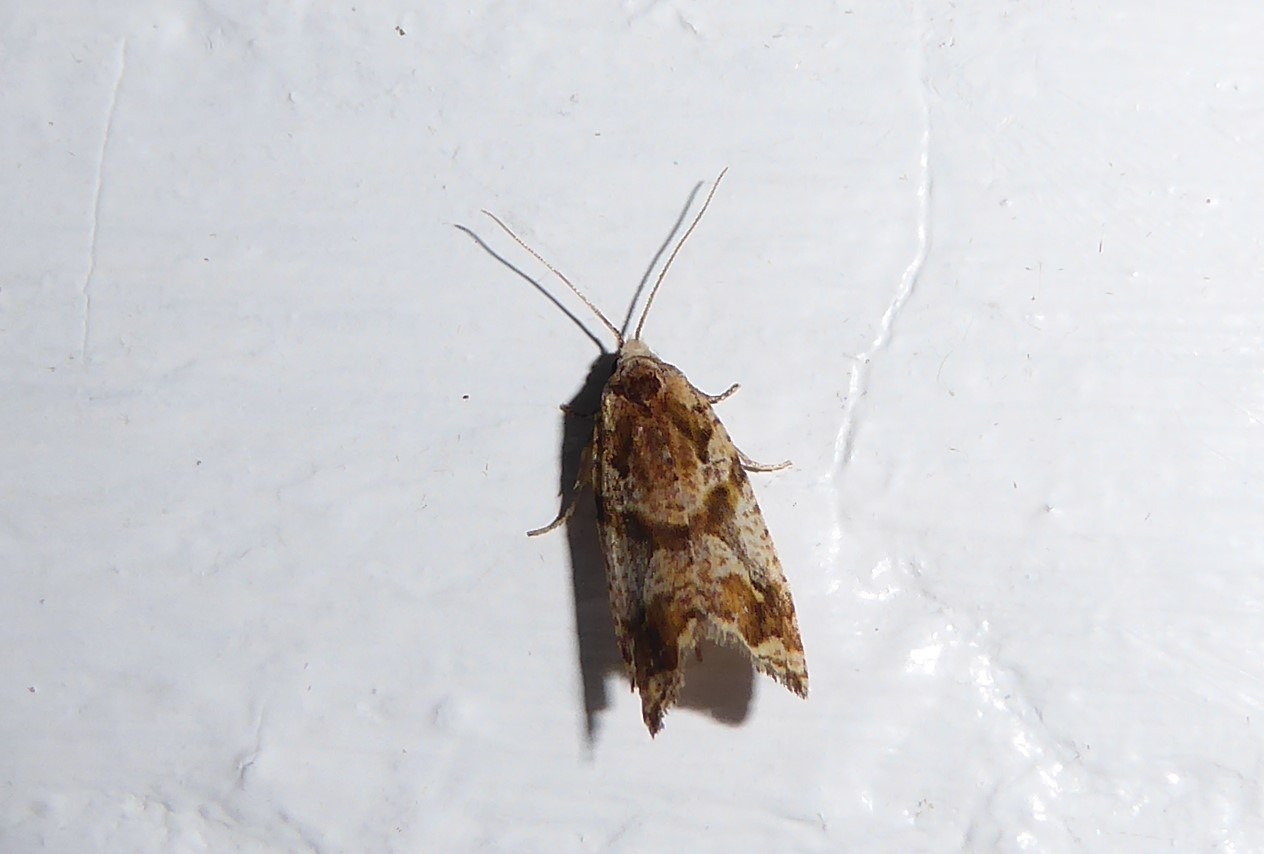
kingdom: Animalia
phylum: Arthropoda
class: Insecta
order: Lepidoptera
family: Tortricidae
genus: Pyrgotis
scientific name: Pyrgotis plagiatana
